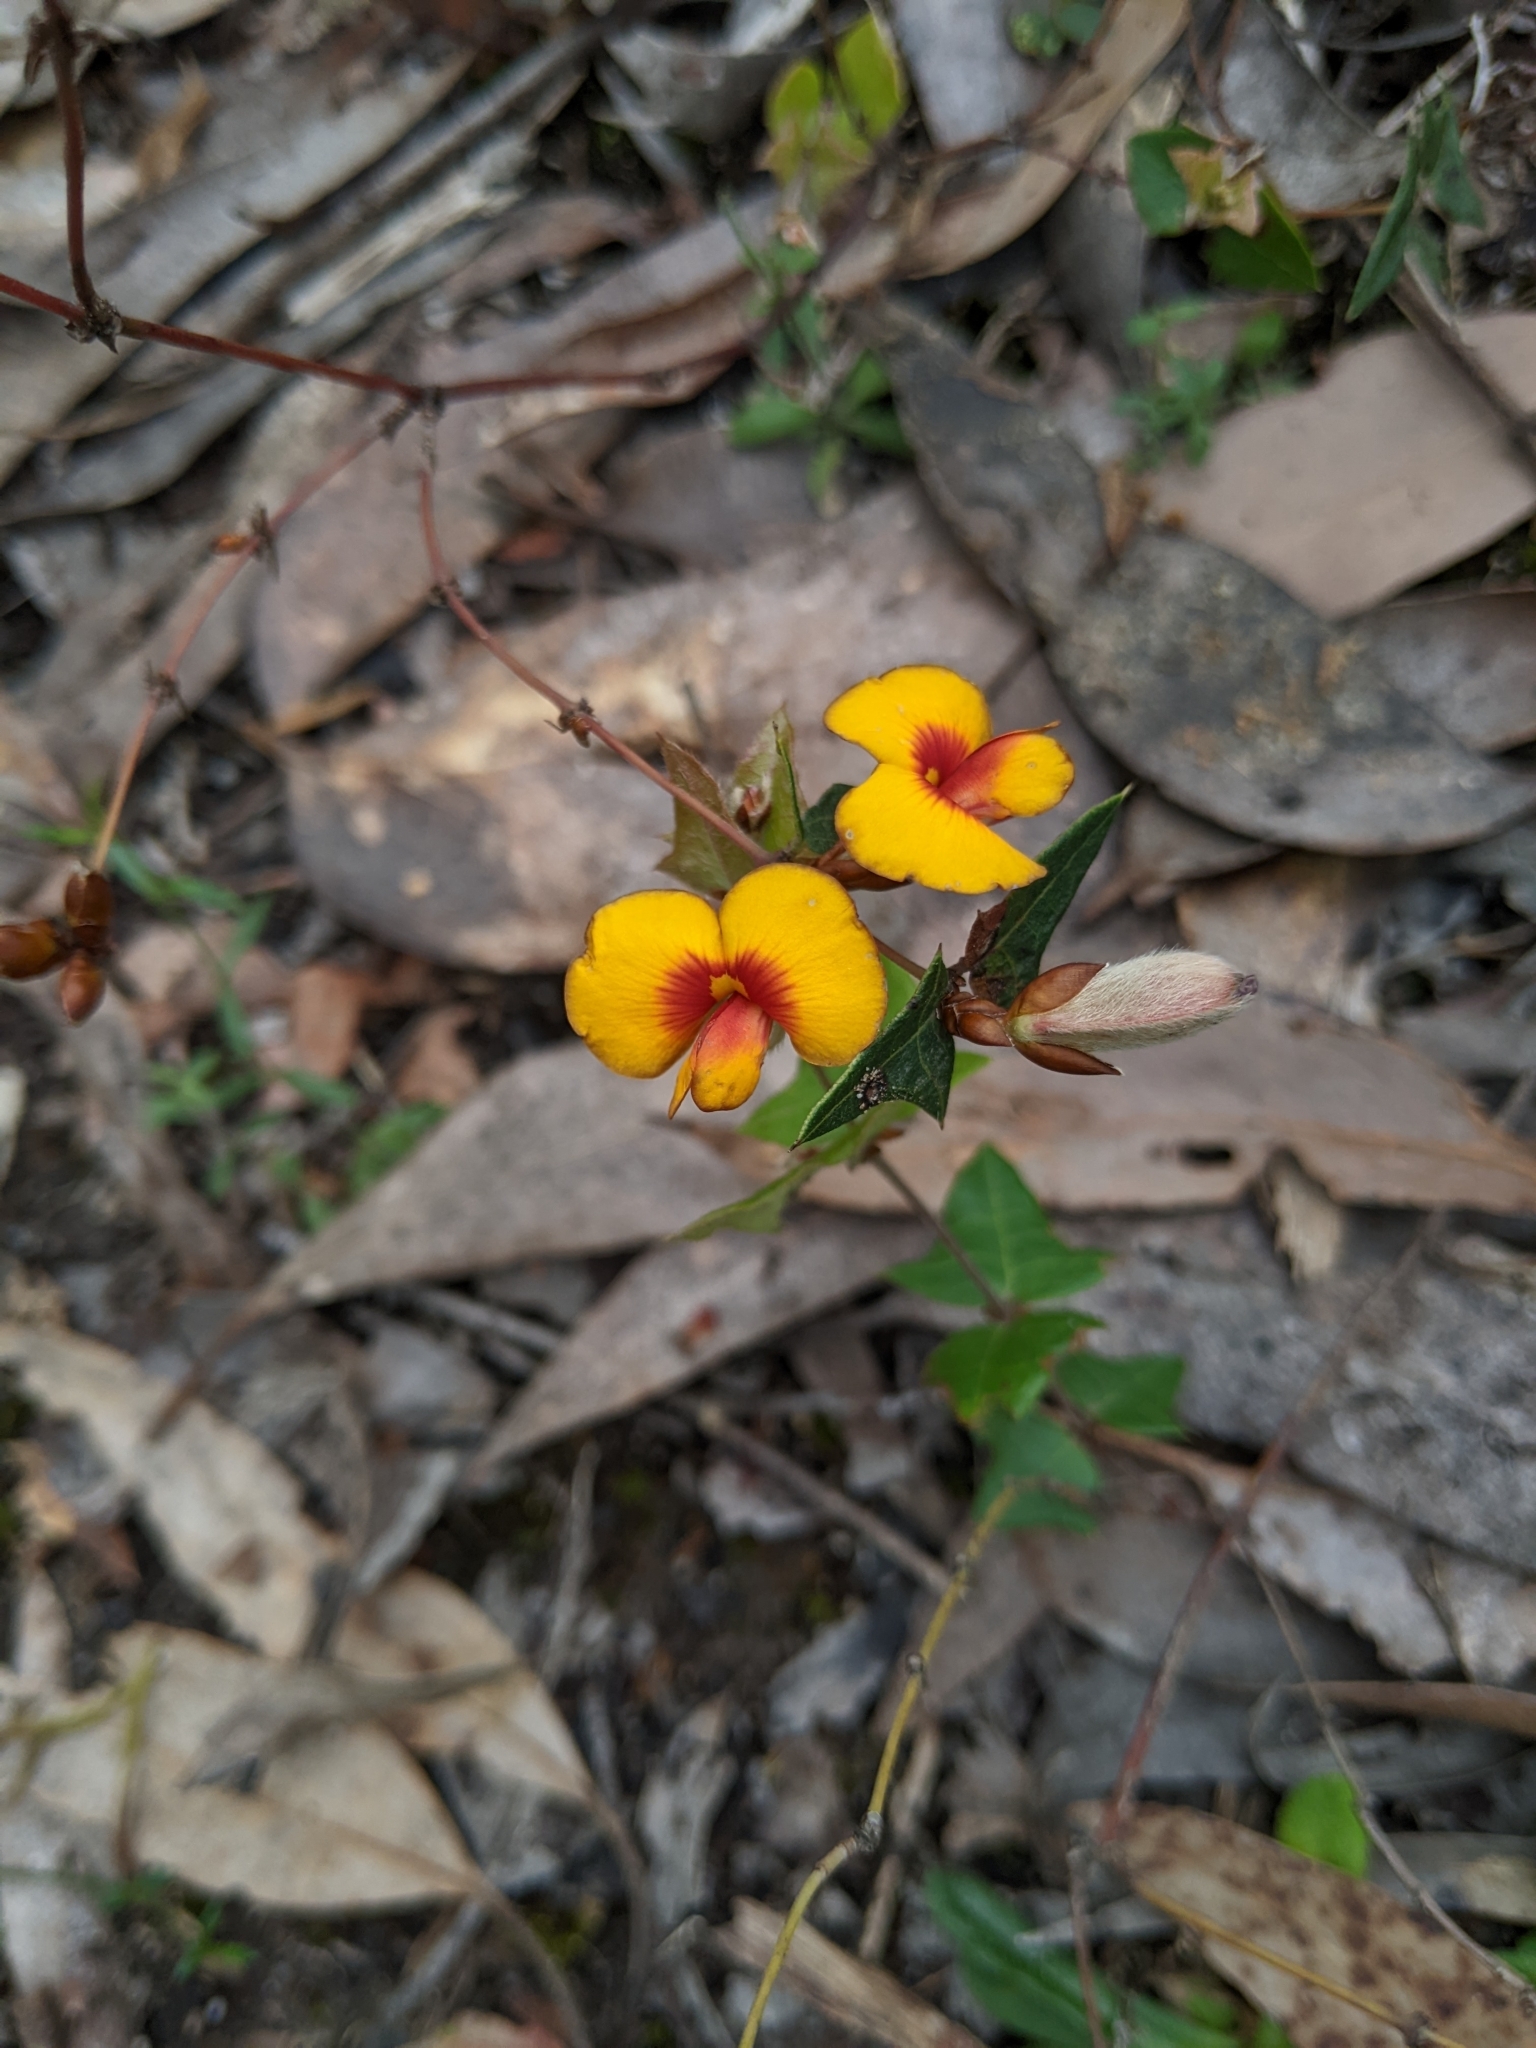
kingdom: Plantae
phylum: Tracheophyta
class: Magnoliopsida
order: Fabales
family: Fabaceae
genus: Platylobium
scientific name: Platylobium obtusangulum
